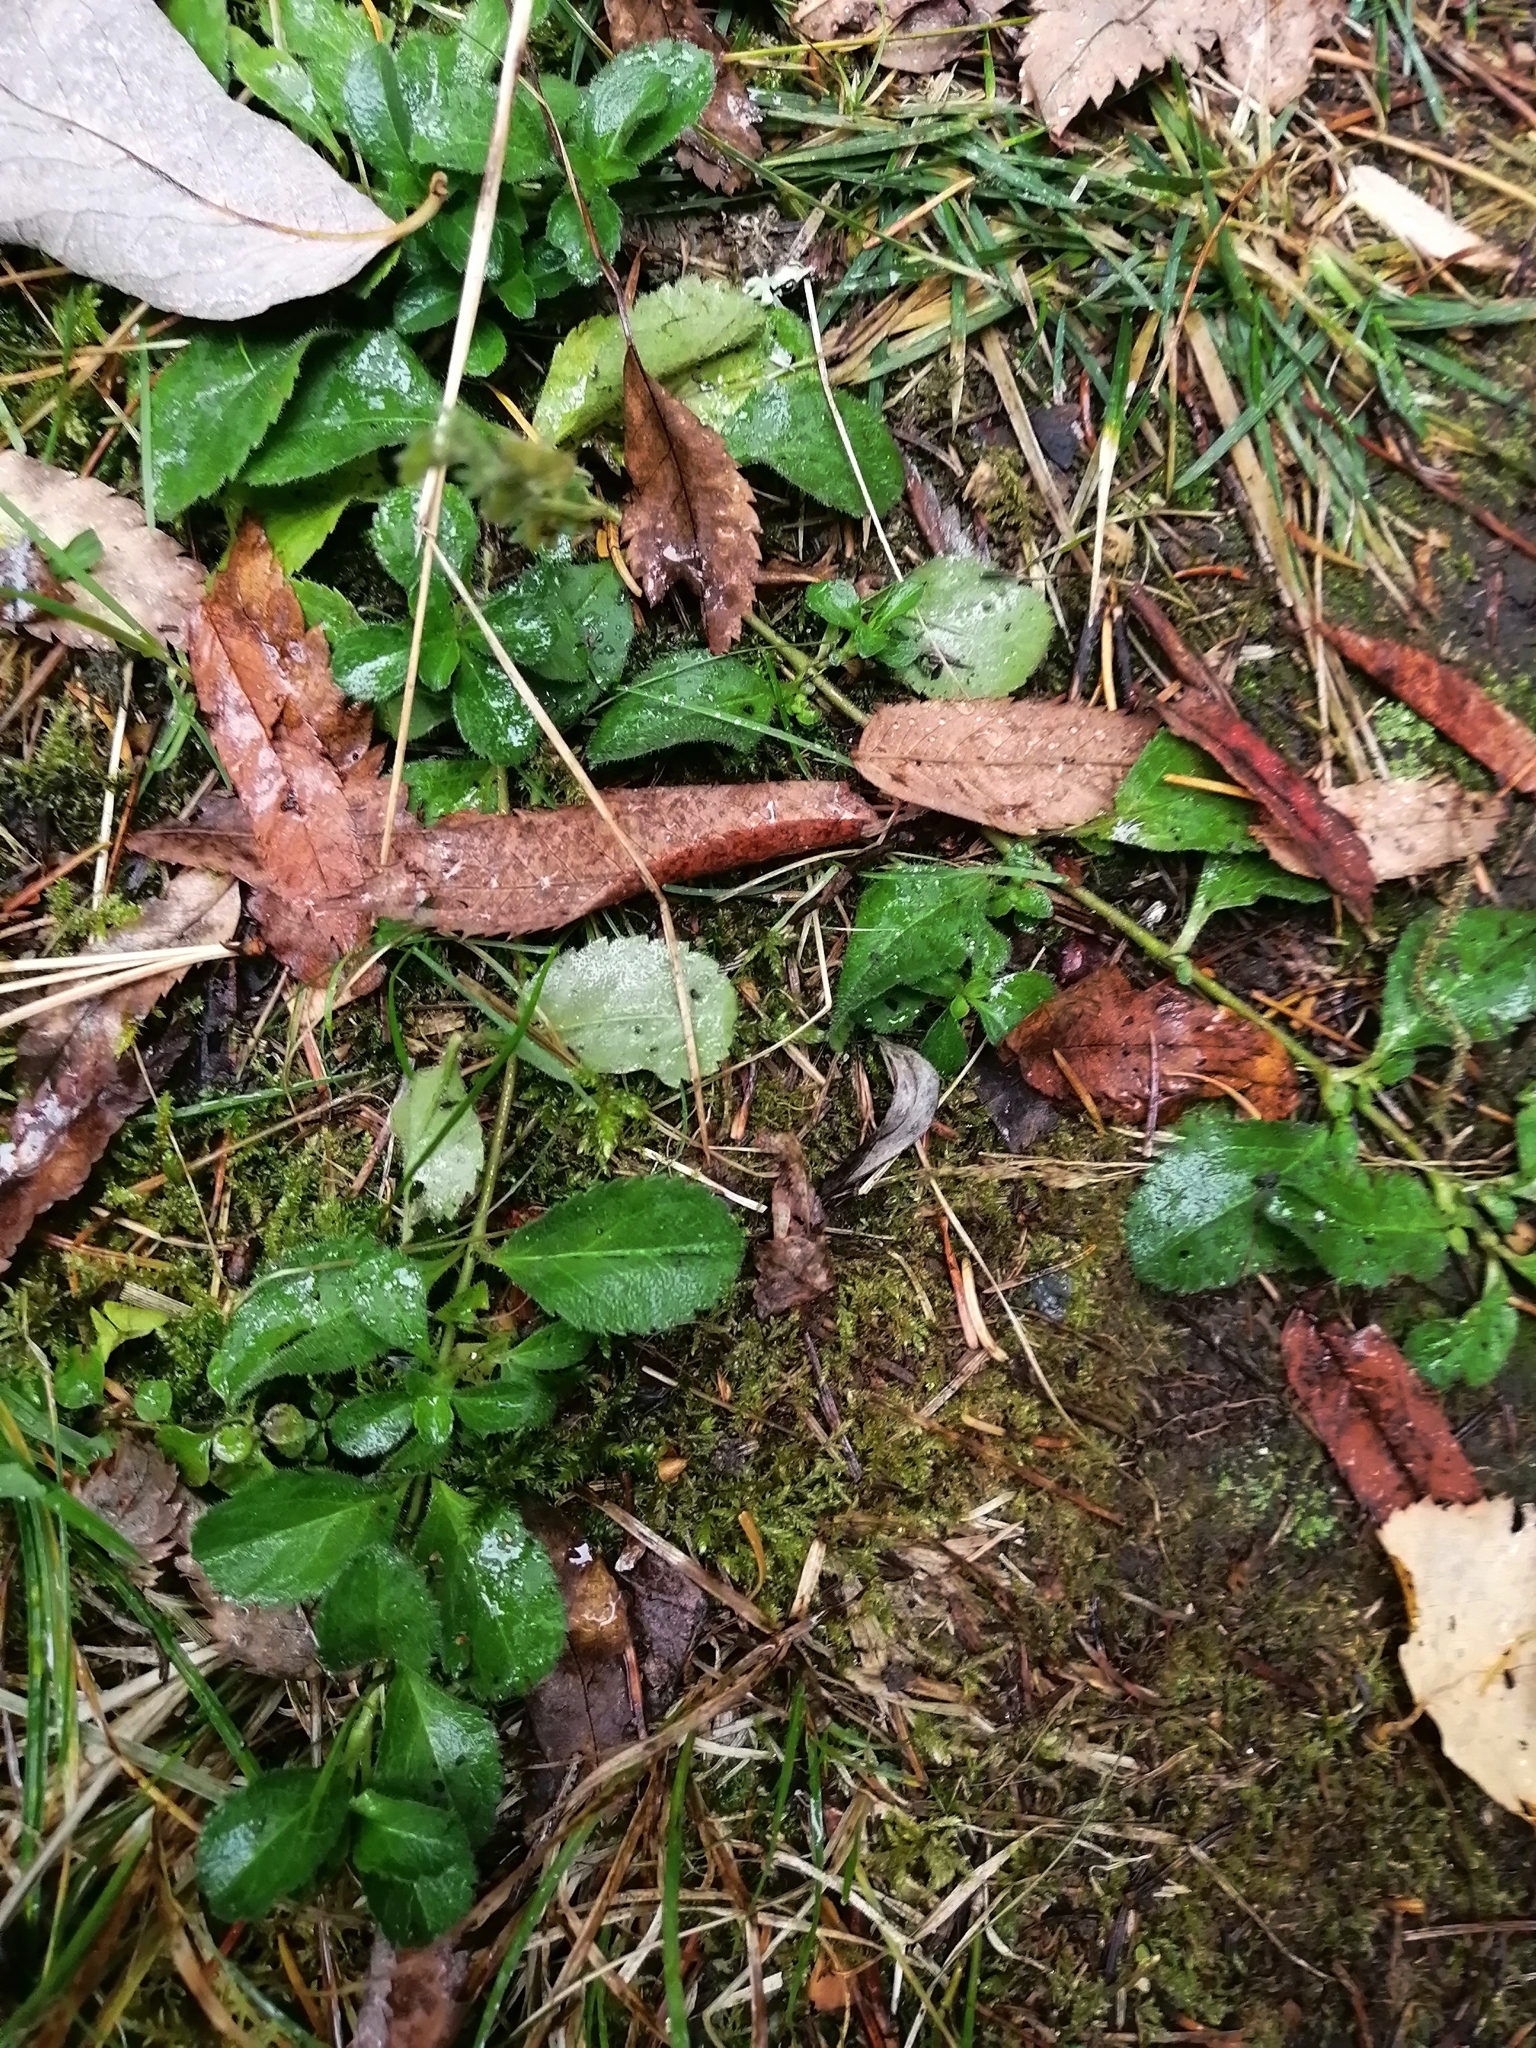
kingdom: Plantae
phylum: Tracheophyta
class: Magnoliopsida
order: Lamiales
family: Plantaginaceae
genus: Veronica
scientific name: Veronica officinalis
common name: Common speedwell
